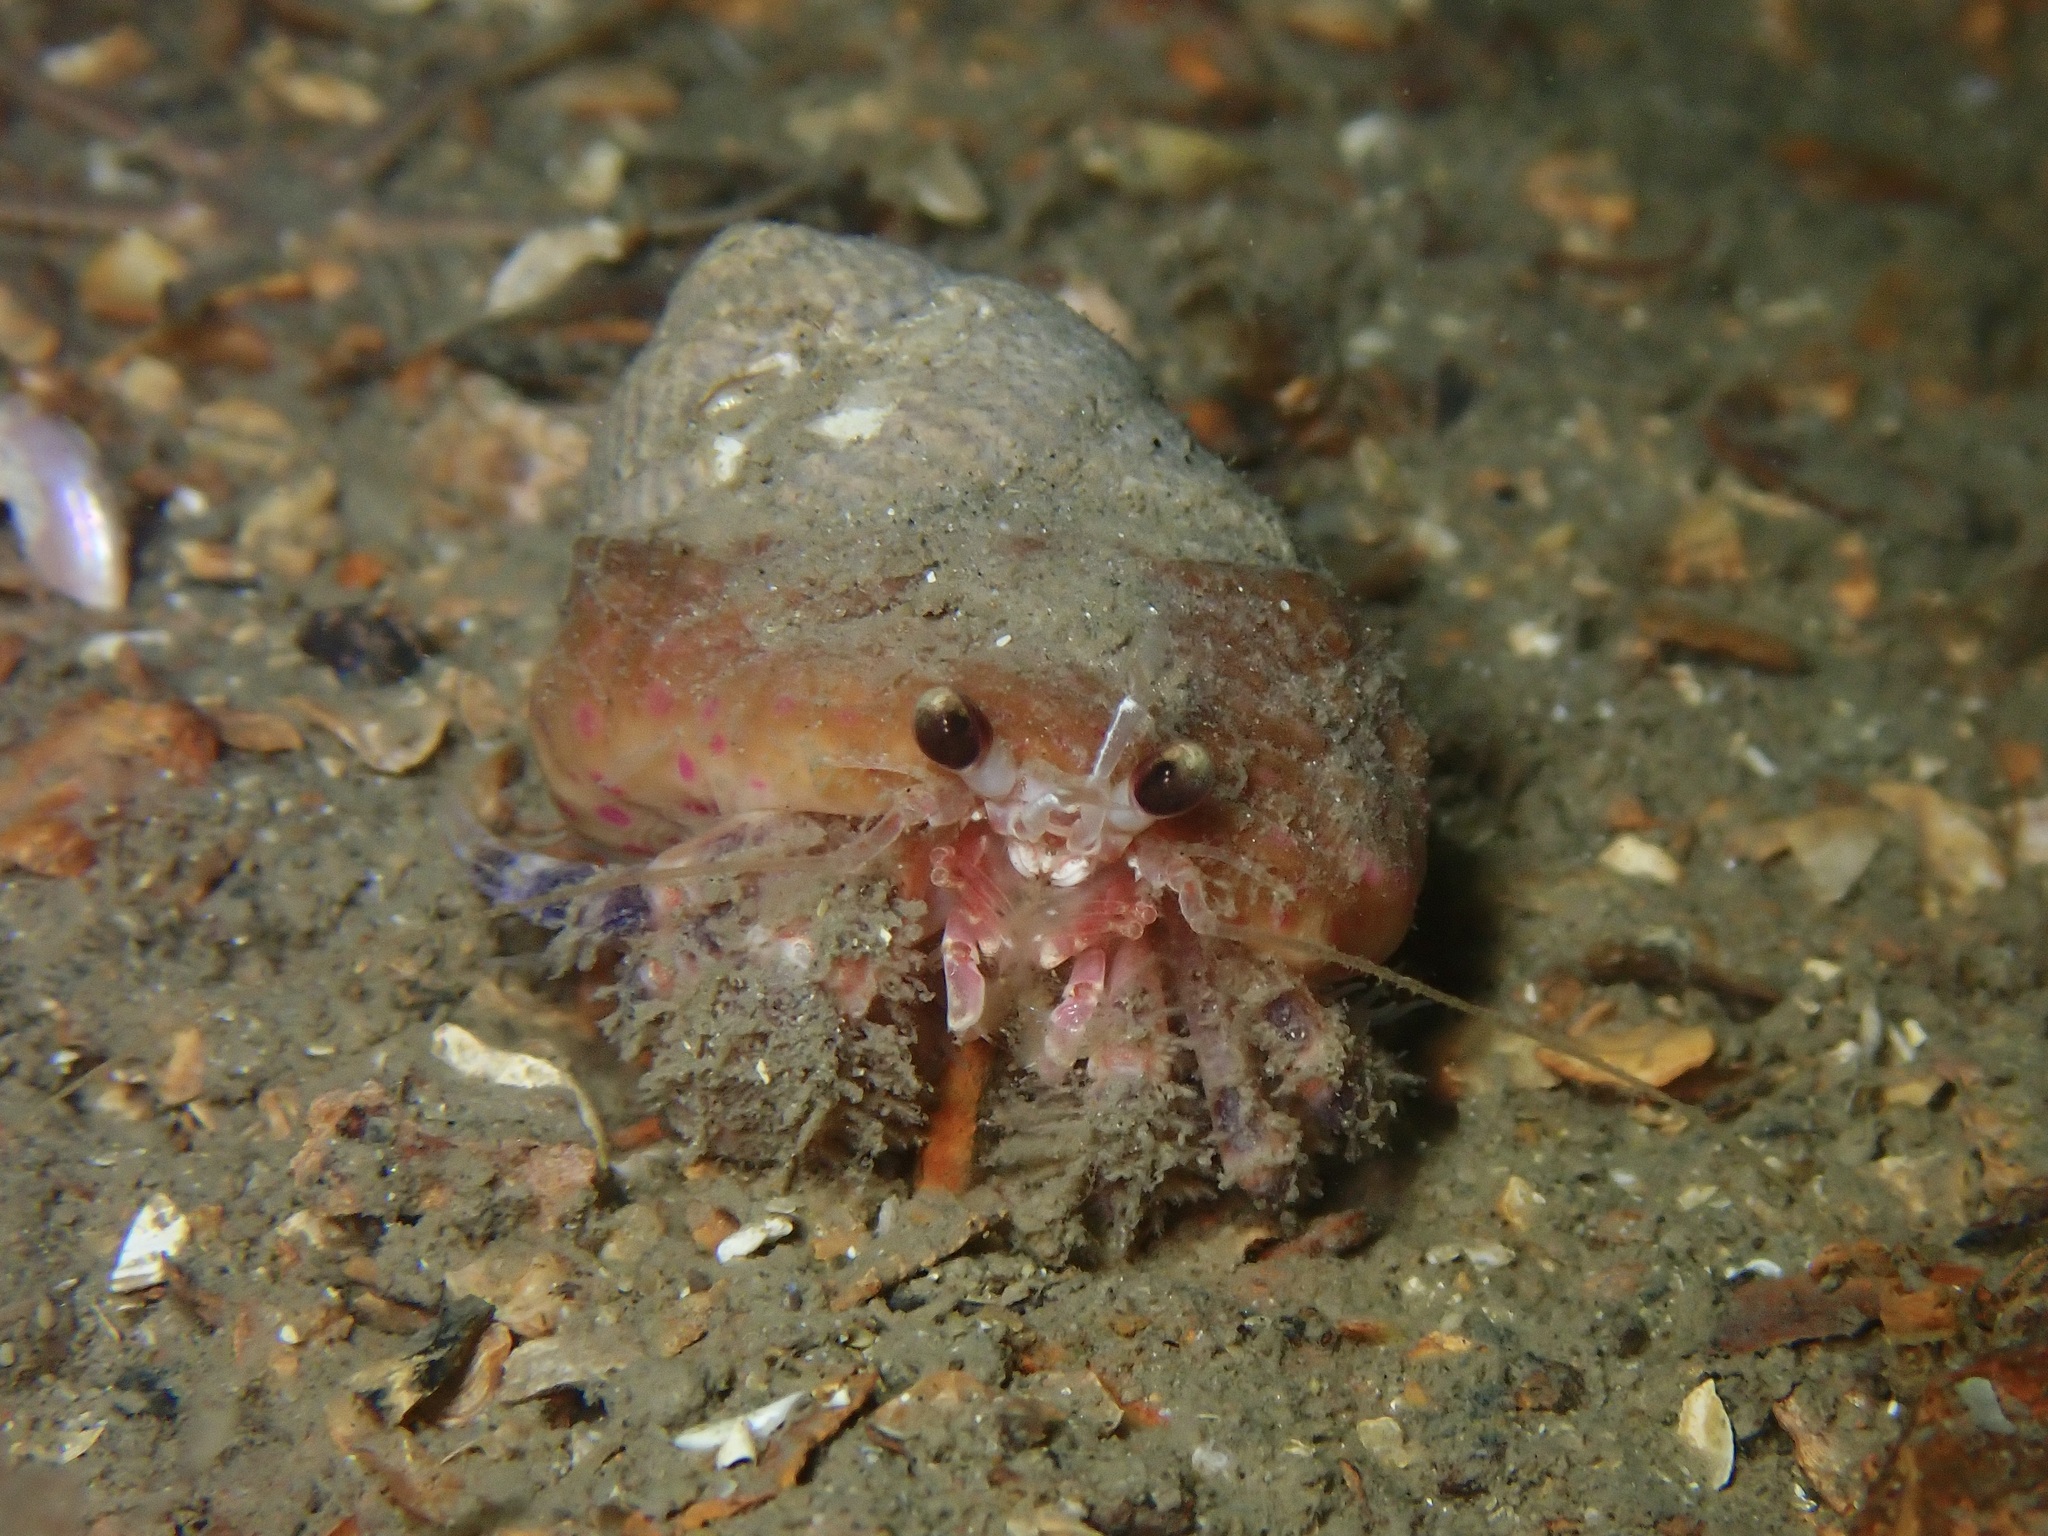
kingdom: Animalia
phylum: Arthropoda
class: Malacostraca
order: Decapoda
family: Paguridae
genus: Pagurus
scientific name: Pagurus prideaux
